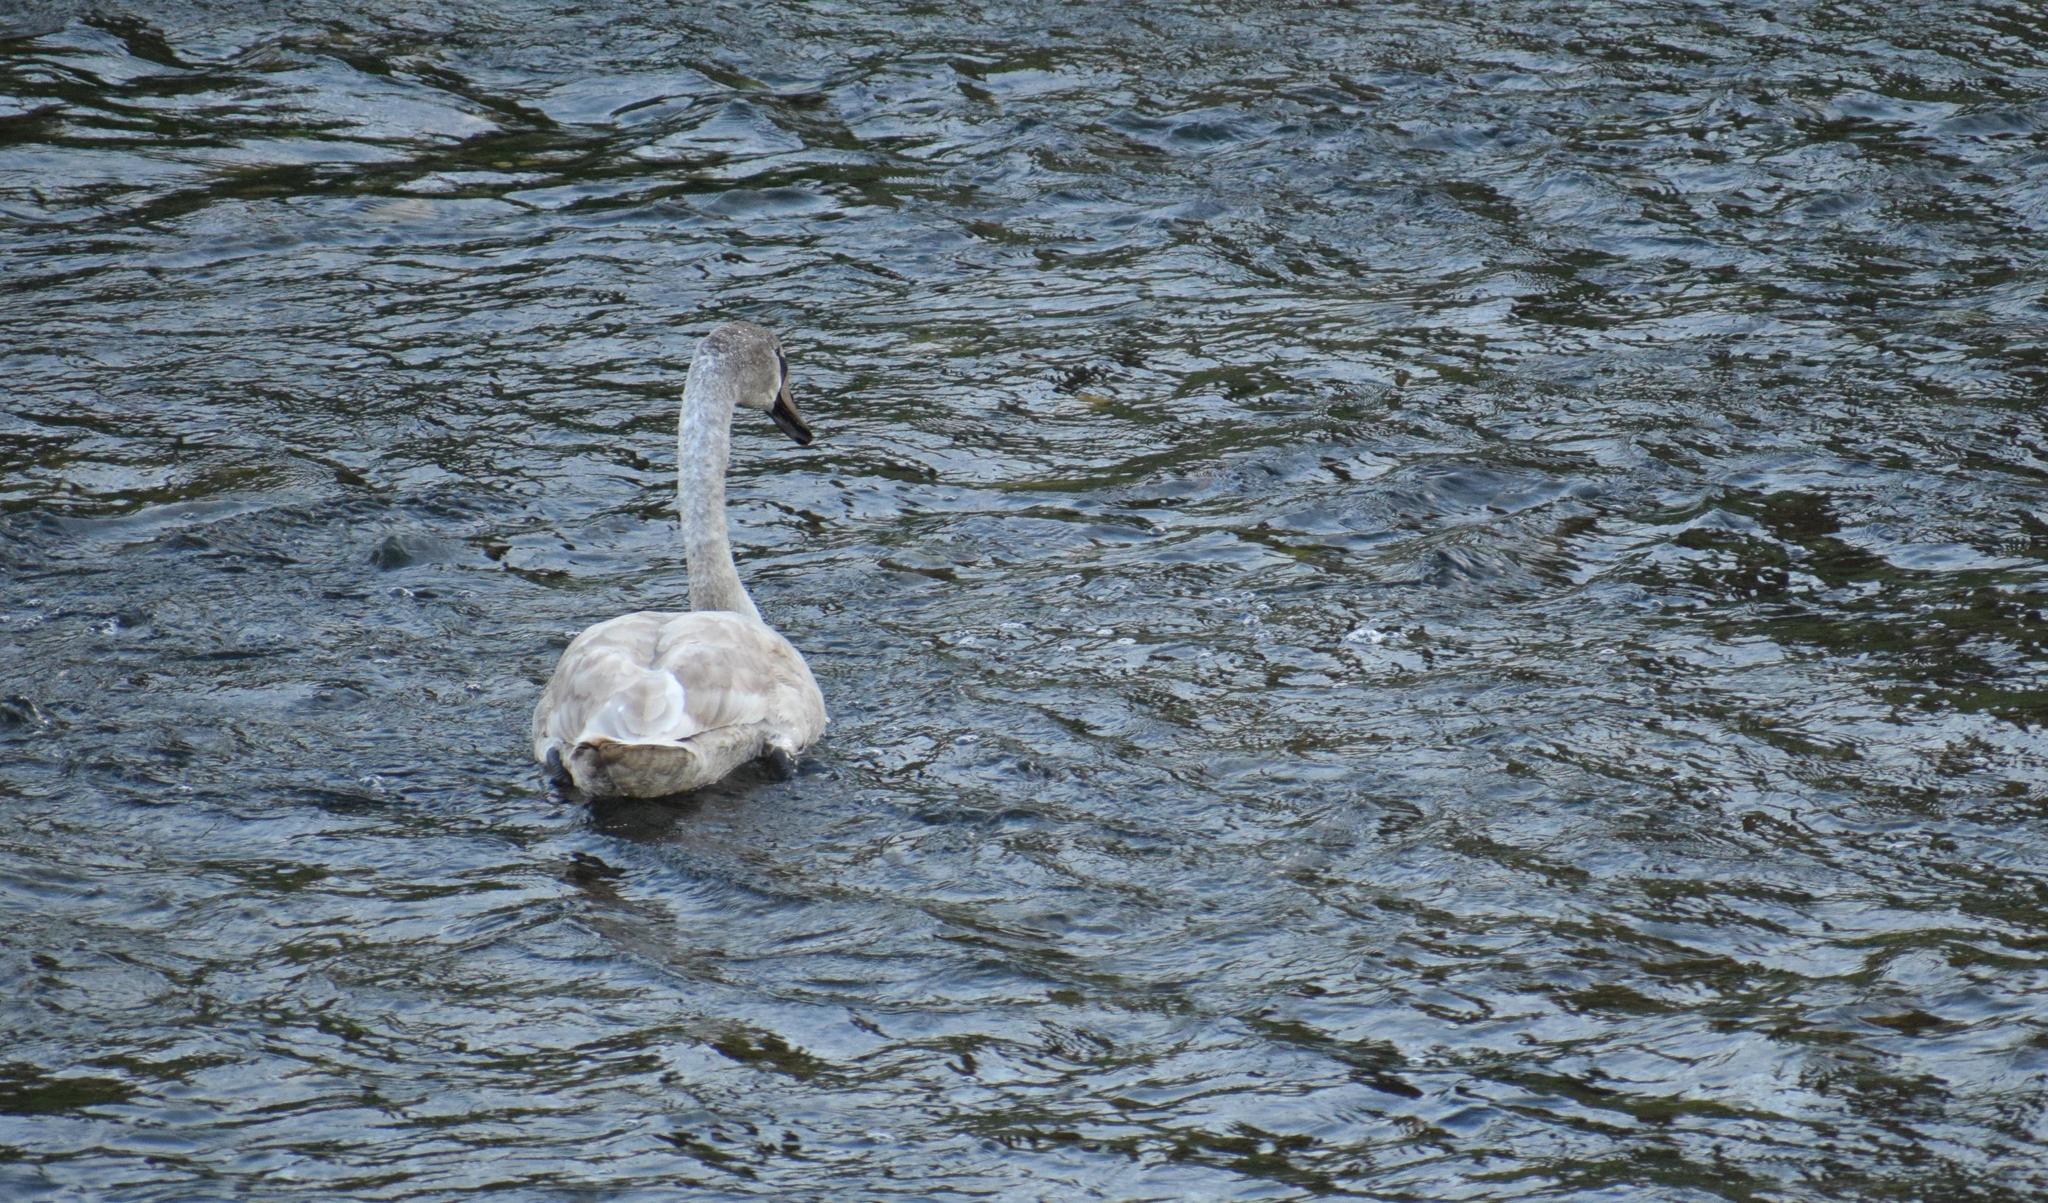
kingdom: Animalia
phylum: Chordata
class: Aves
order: Anseriformes
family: Anatidae
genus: Cygnus
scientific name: Cygnus olor
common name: Mute swan
